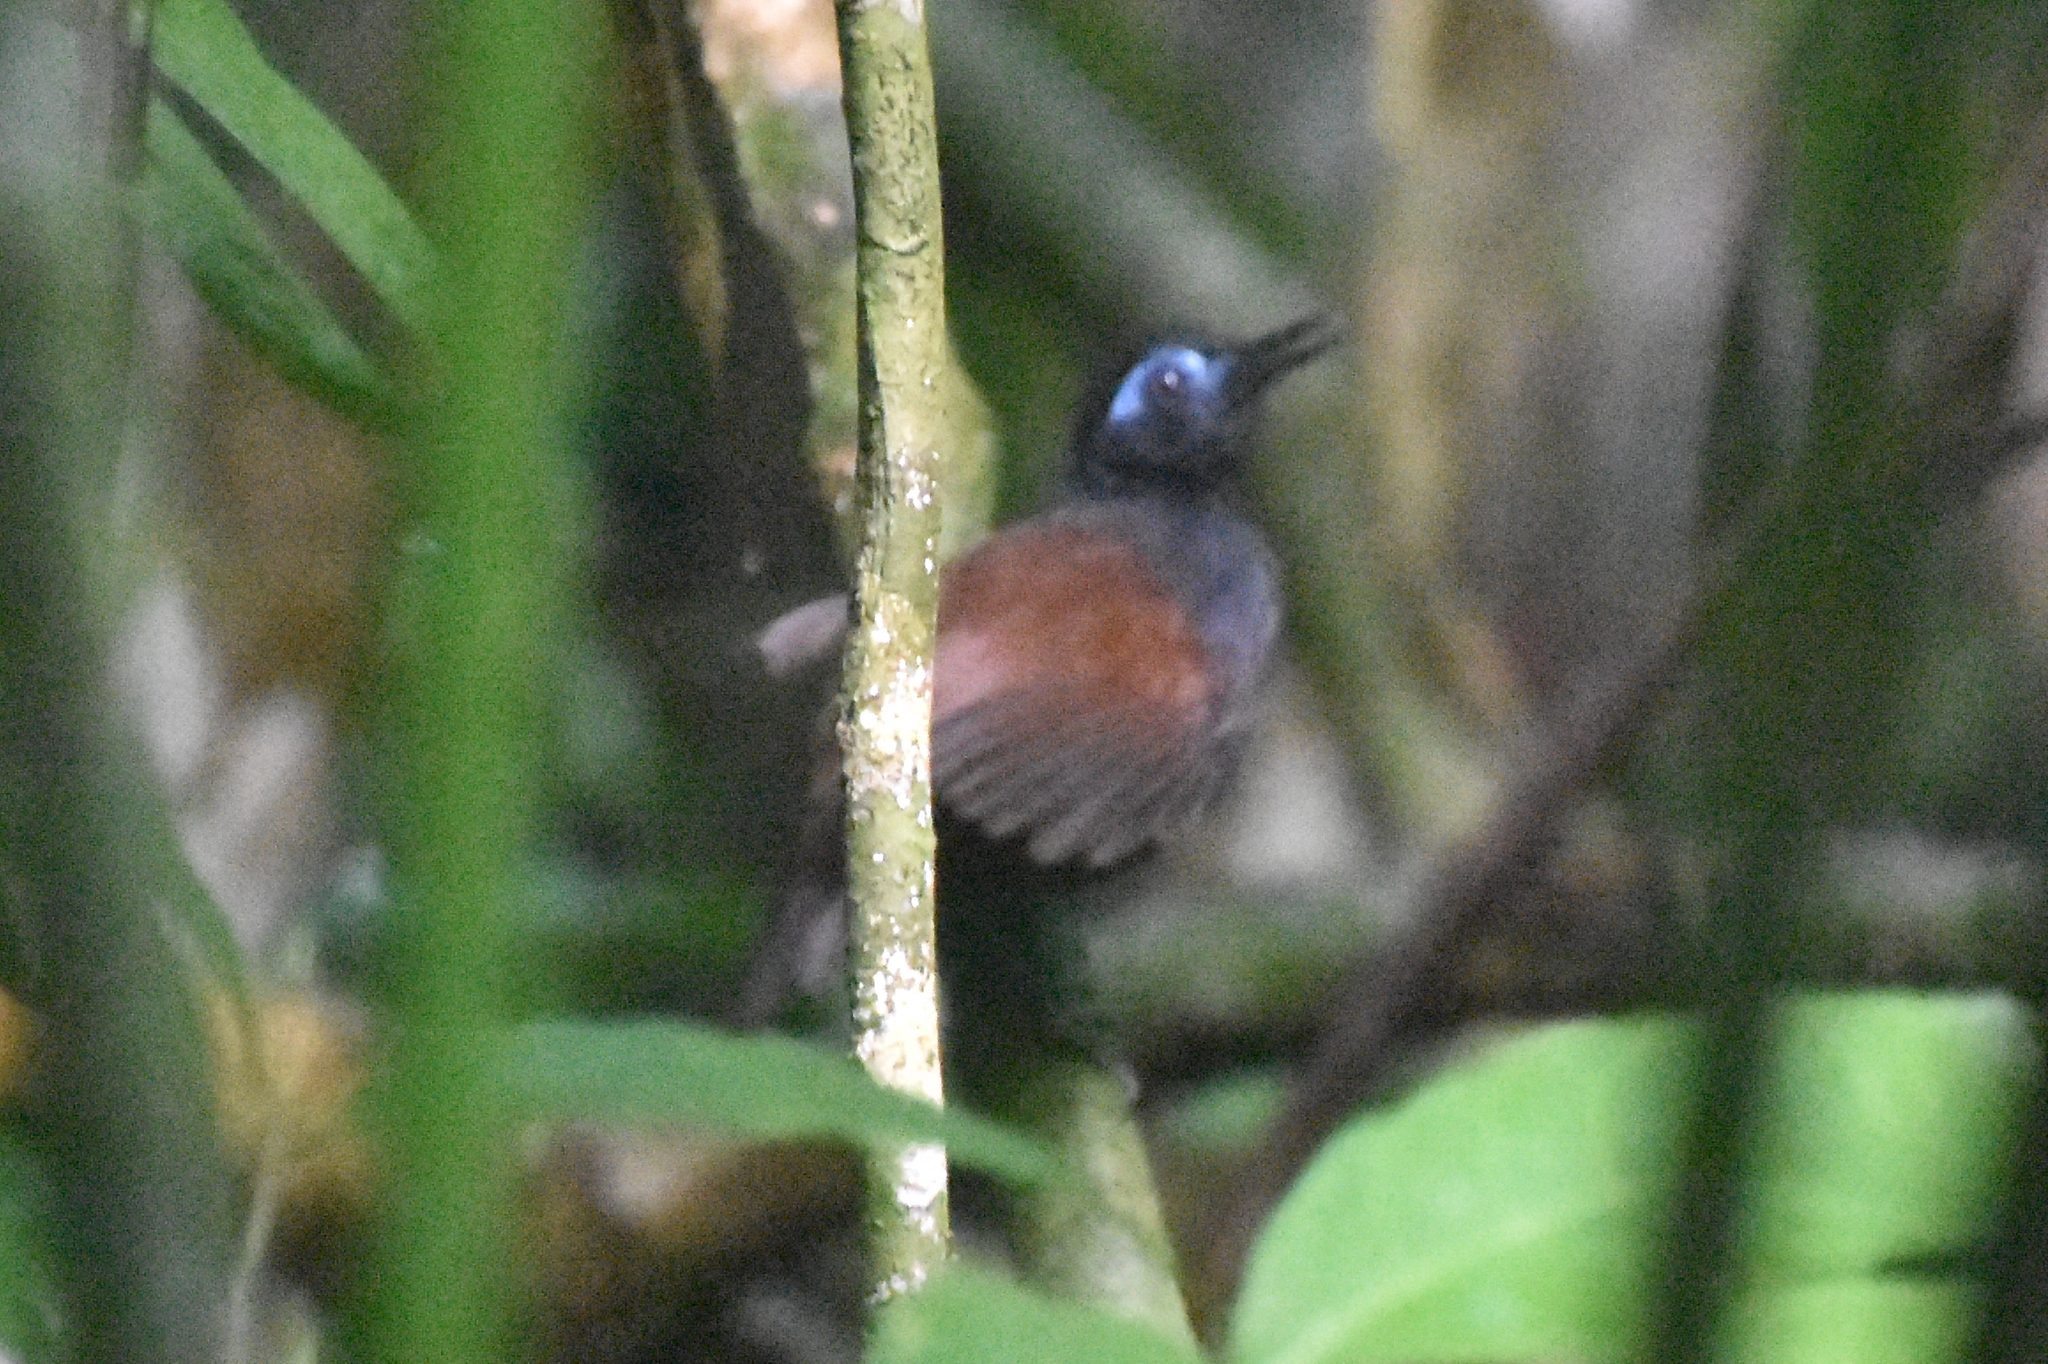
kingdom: Animalia
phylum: Chordata
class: Aves
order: Passeriformes
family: Thamnophilidae
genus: Myrmeciza
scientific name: Myrmeciza exsul
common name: Chestnut-backed antbird
